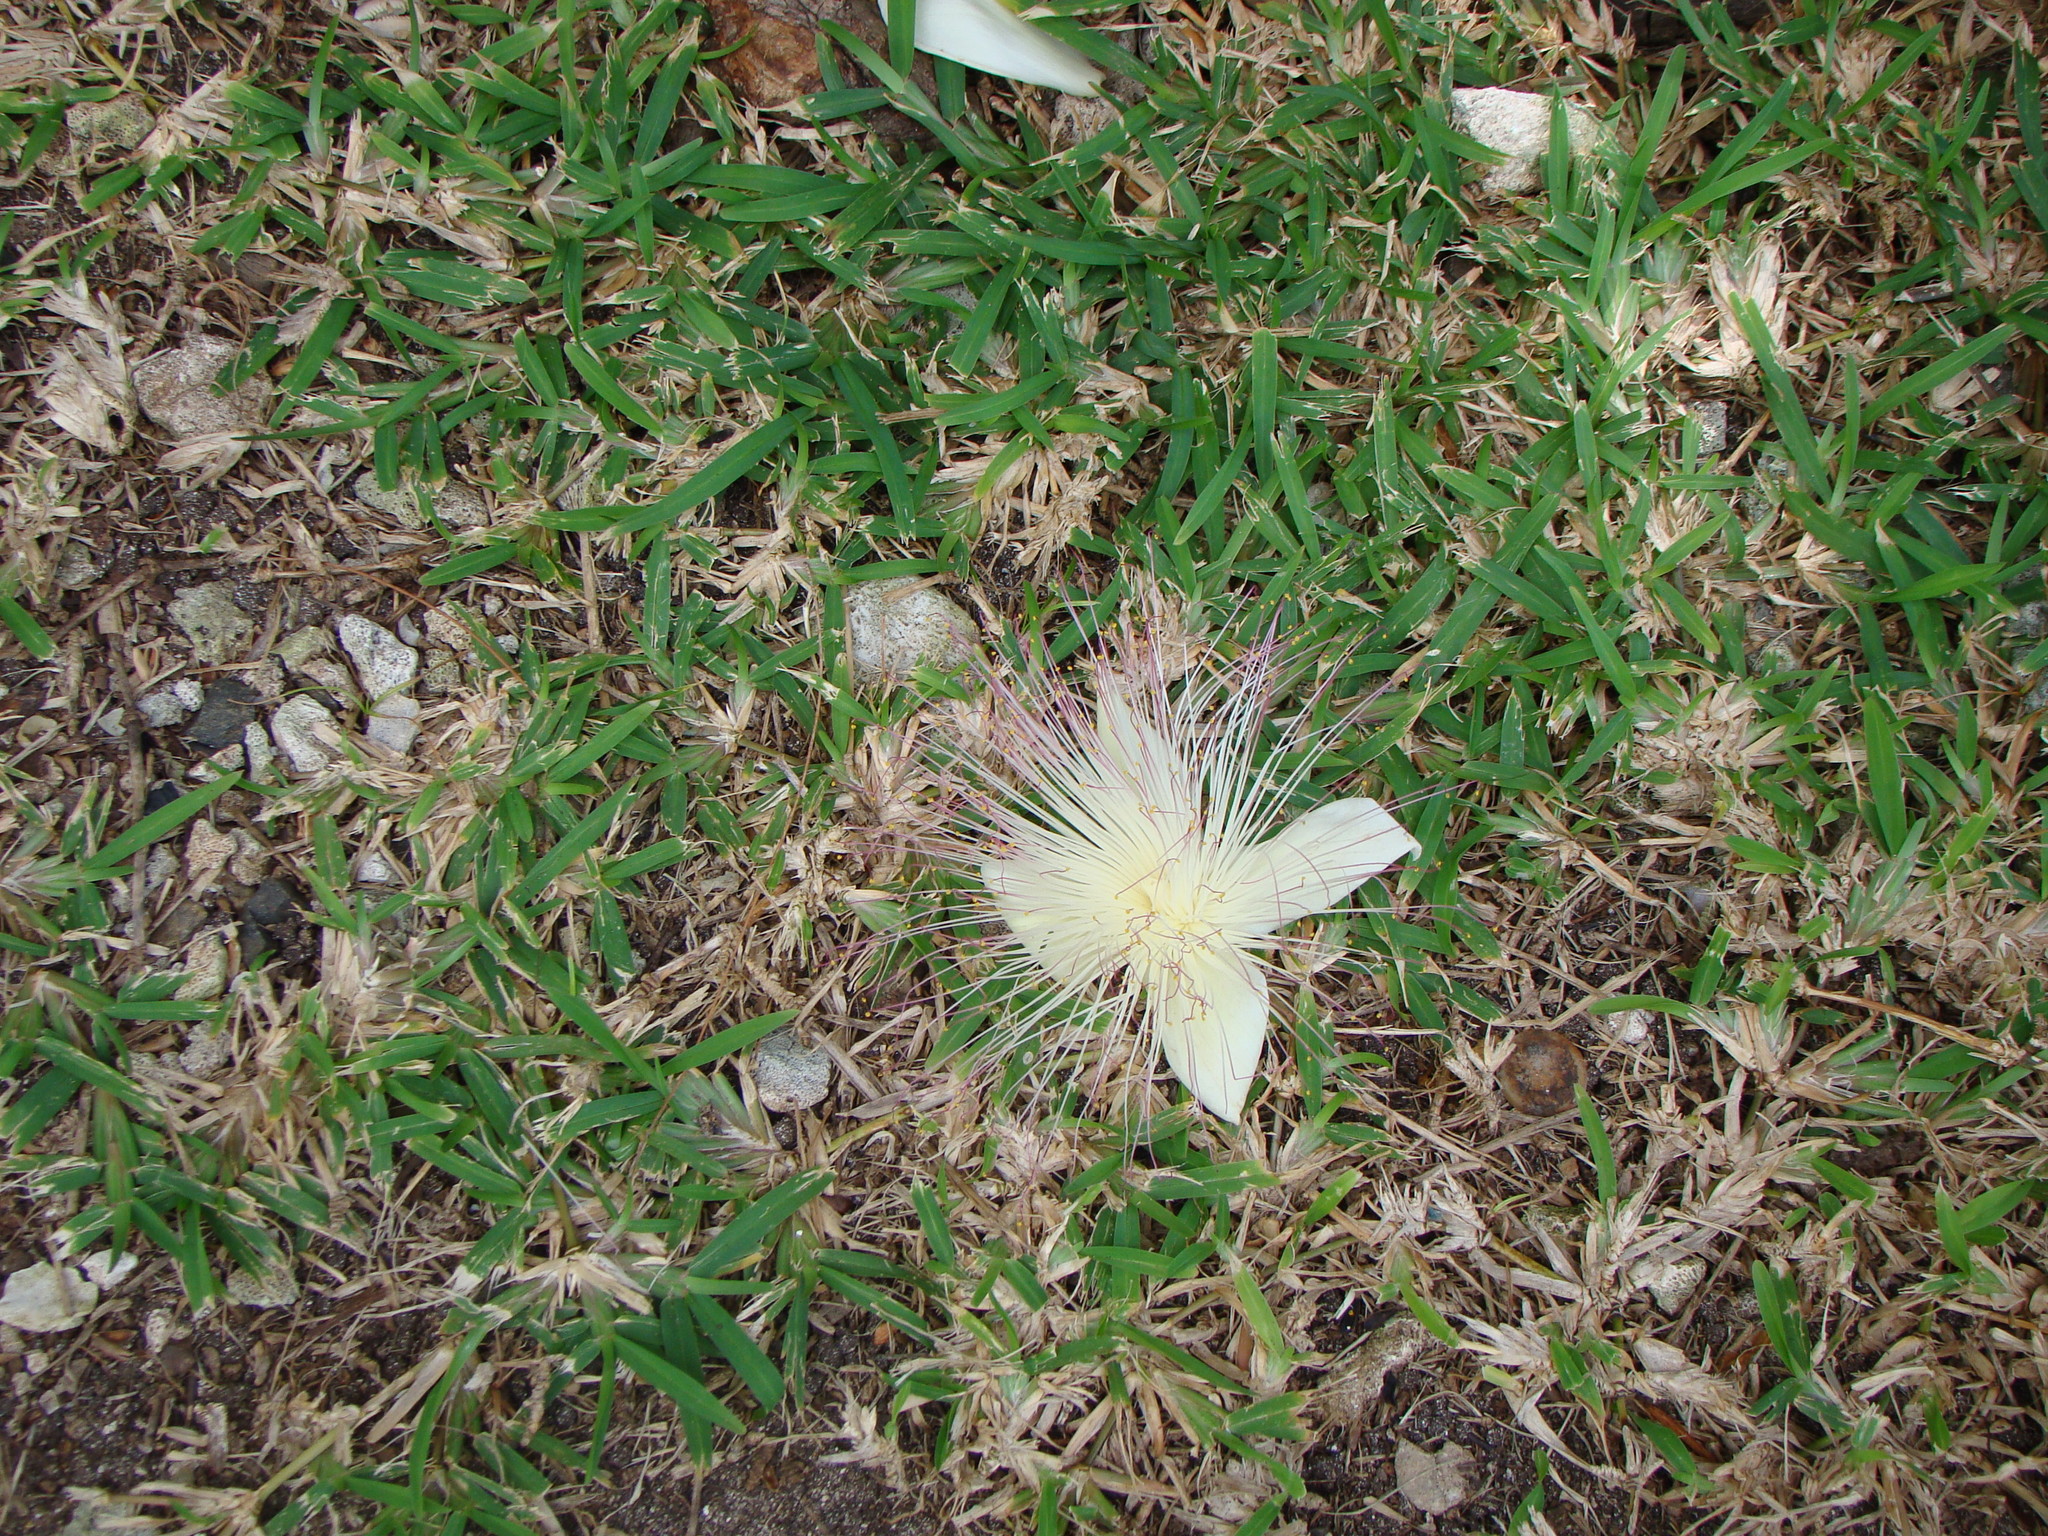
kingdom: Plantae
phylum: Tracheophyta
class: Magnoliopsida
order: Ericales
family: Lecythidaceae
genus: Barringtonia
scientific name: Barringtonia asiatica
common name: Mango-pine
